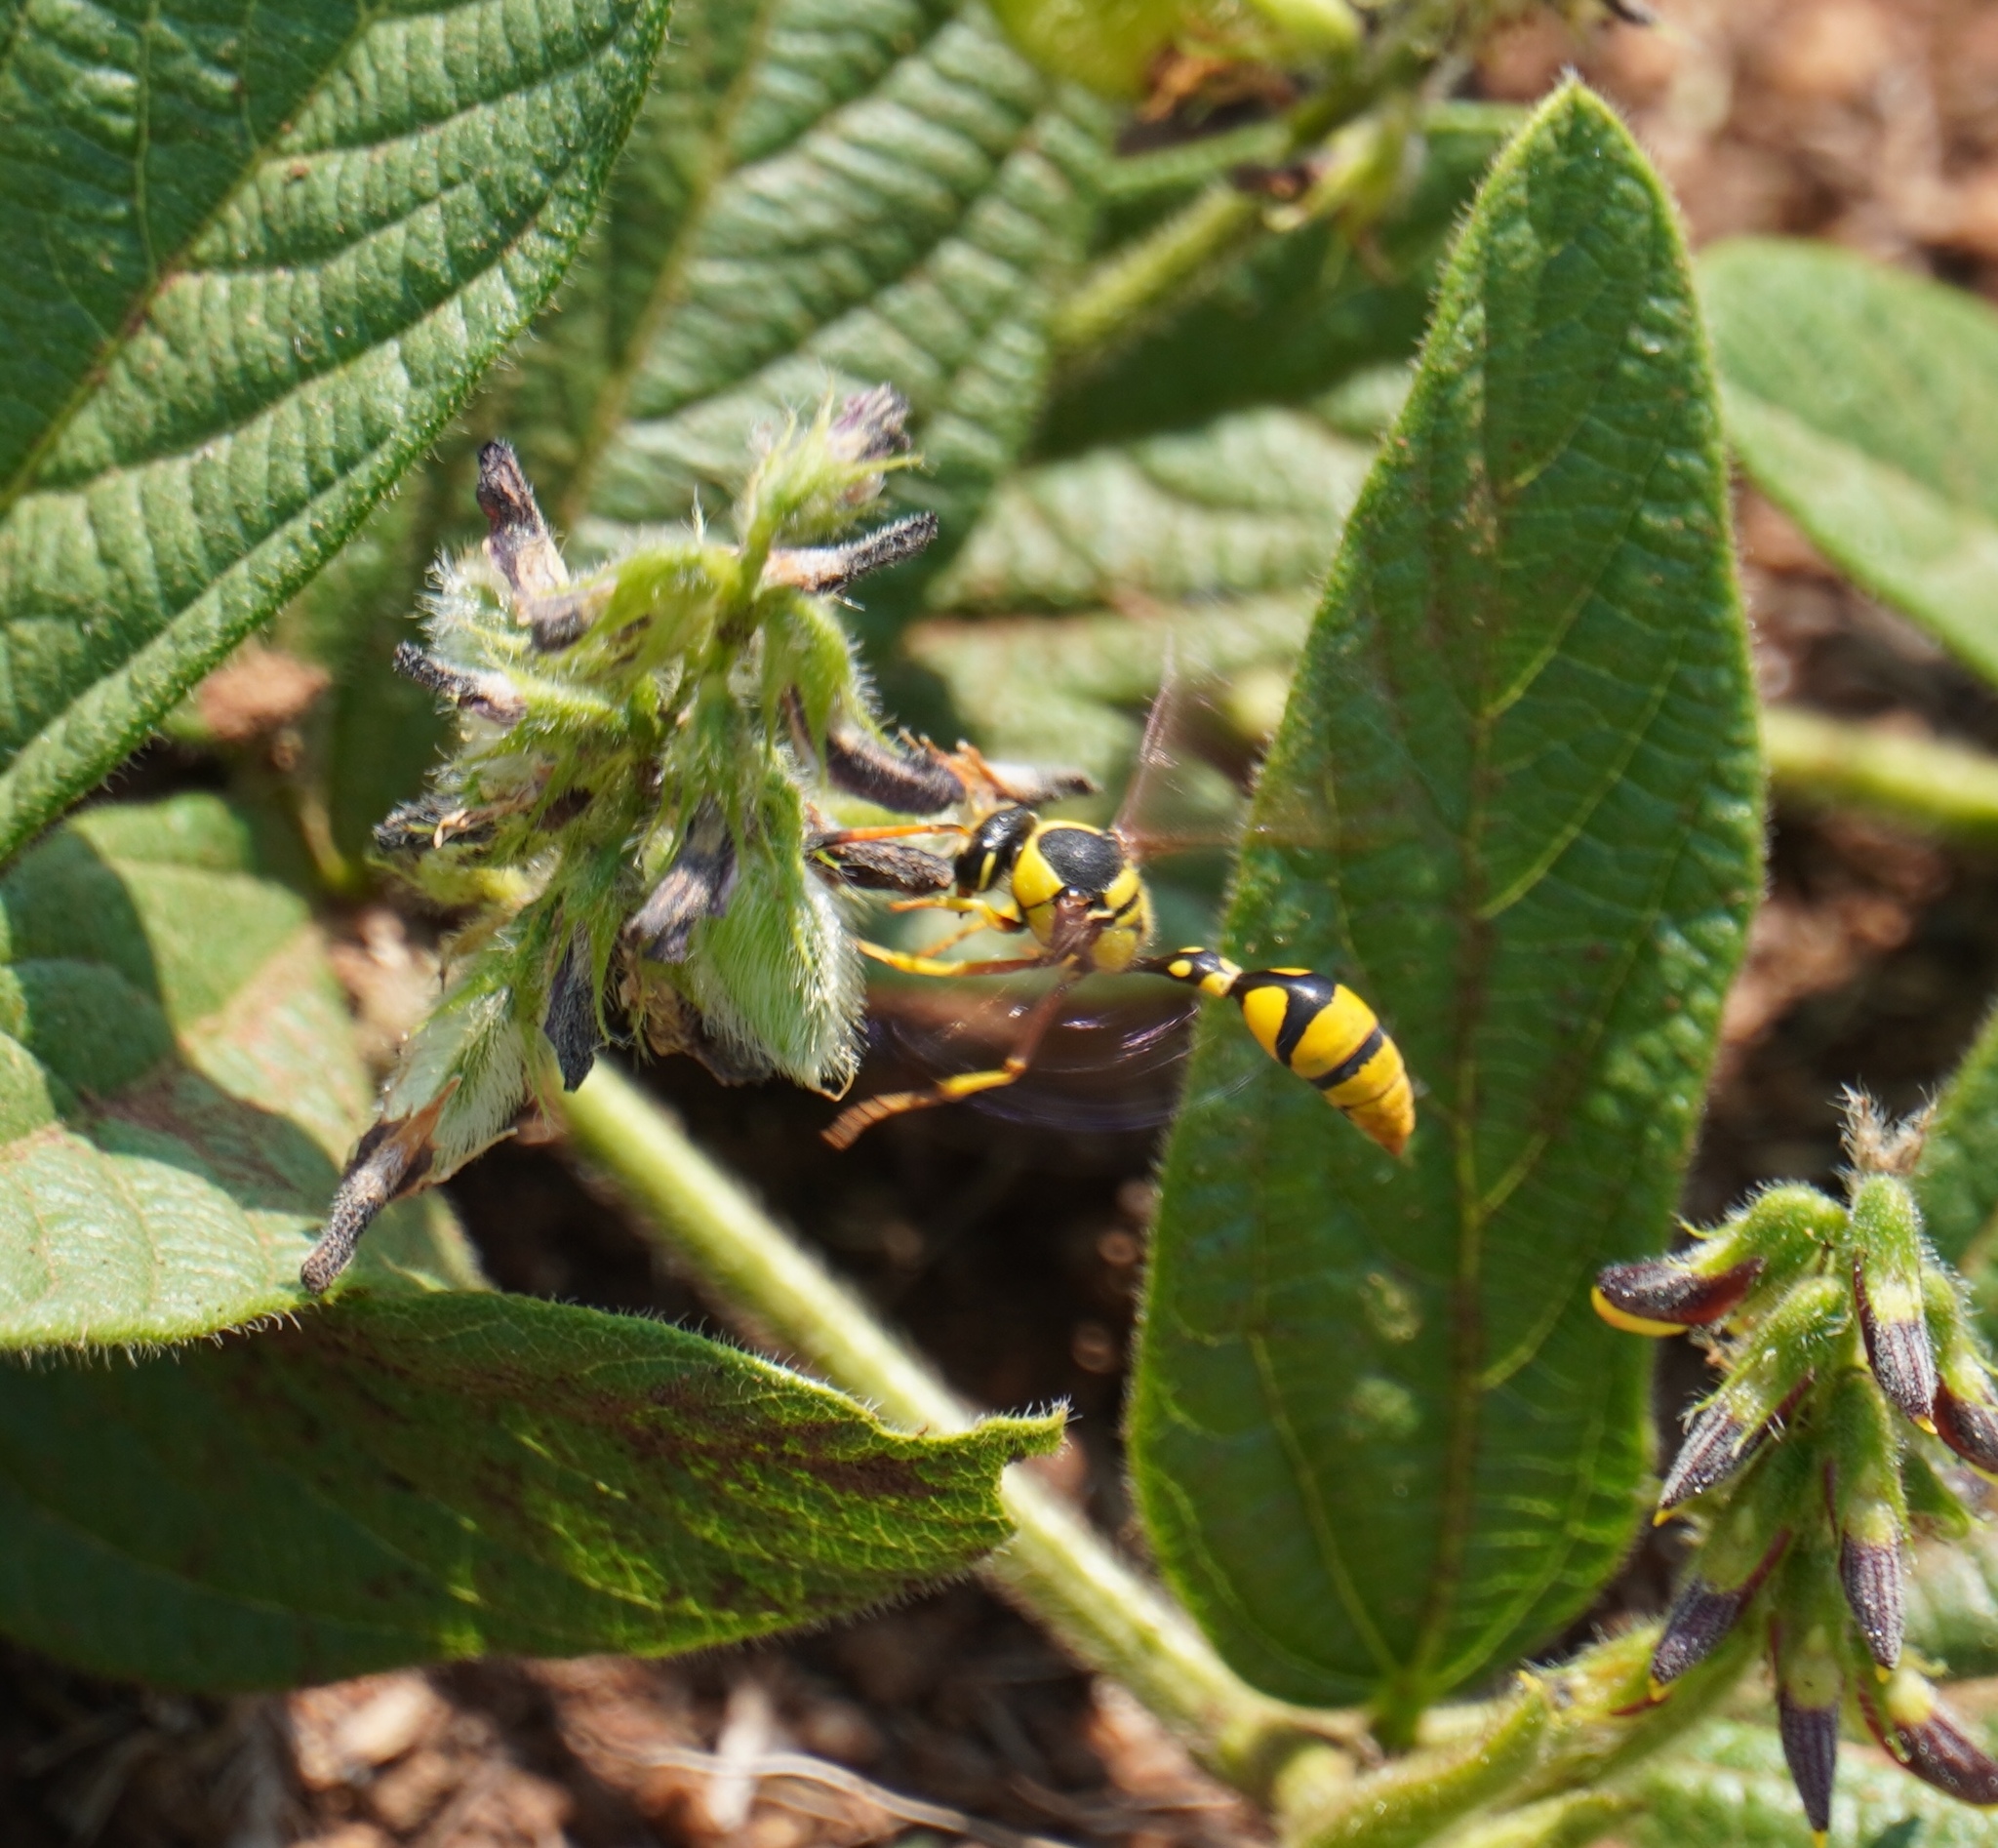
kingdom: Animalia
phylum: Arthropoda
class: Insecta
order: Hymenoptera
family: Eumenidae
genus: Katamenes
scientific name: Katamenes macrocephalus
